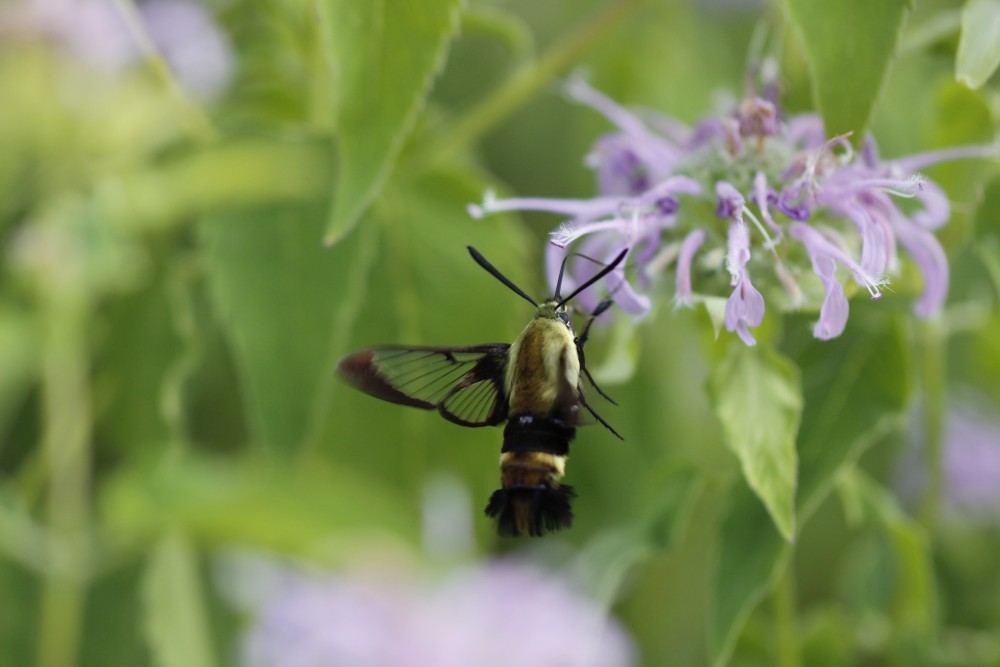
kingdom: Animalia
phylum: Arthropoda
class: Insecta
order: Lepidoptera
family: Sphingidae
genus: Hemaris
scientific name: Hemaris diffinis
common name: Bumblebee moth
